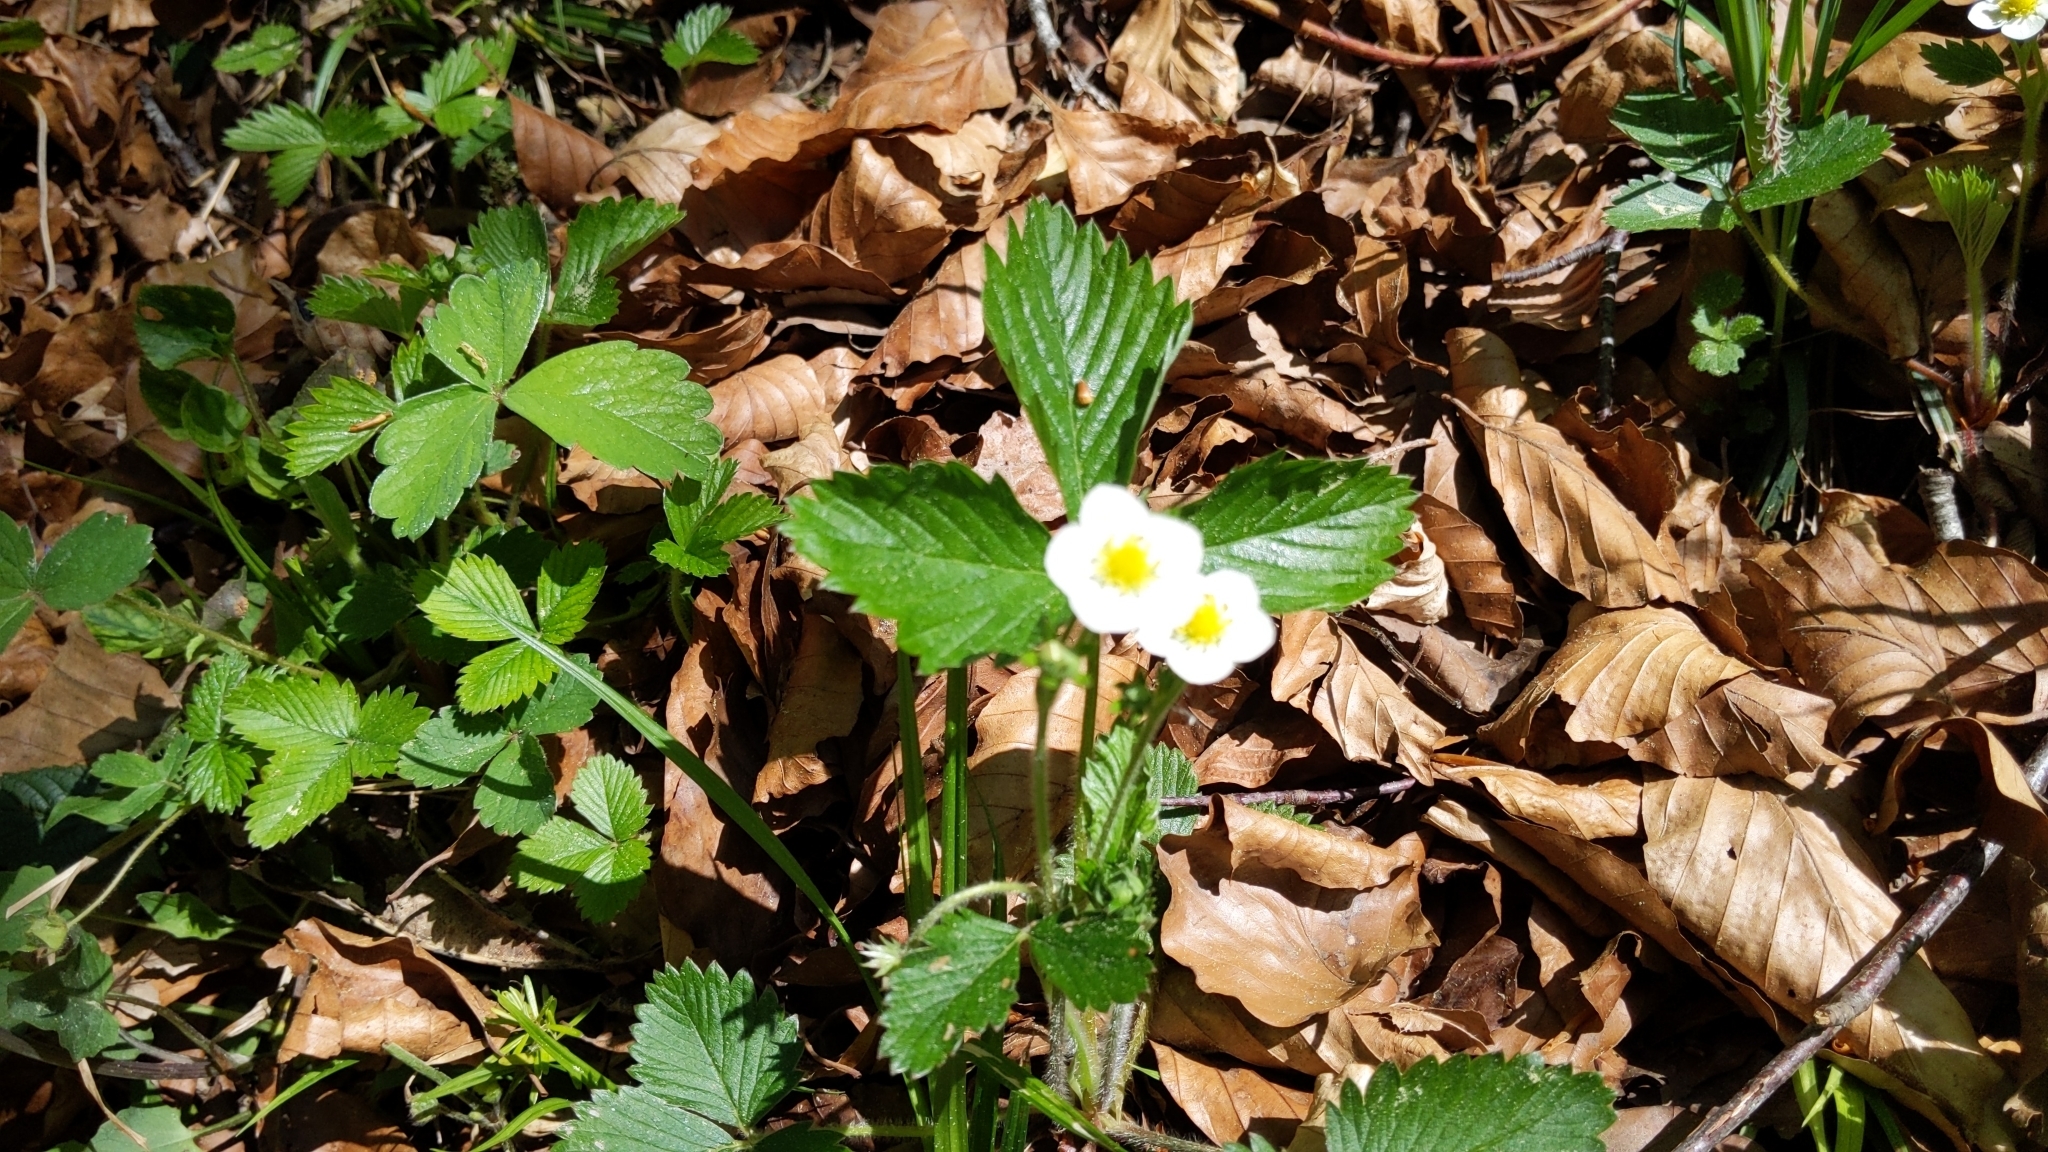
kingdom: Plantae
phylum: Tracheophyta
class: Magnoliopsida
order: Rosales
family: Rosaceae
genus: Fragaria
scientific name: Fragaria vesca
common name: Wild strawberry
